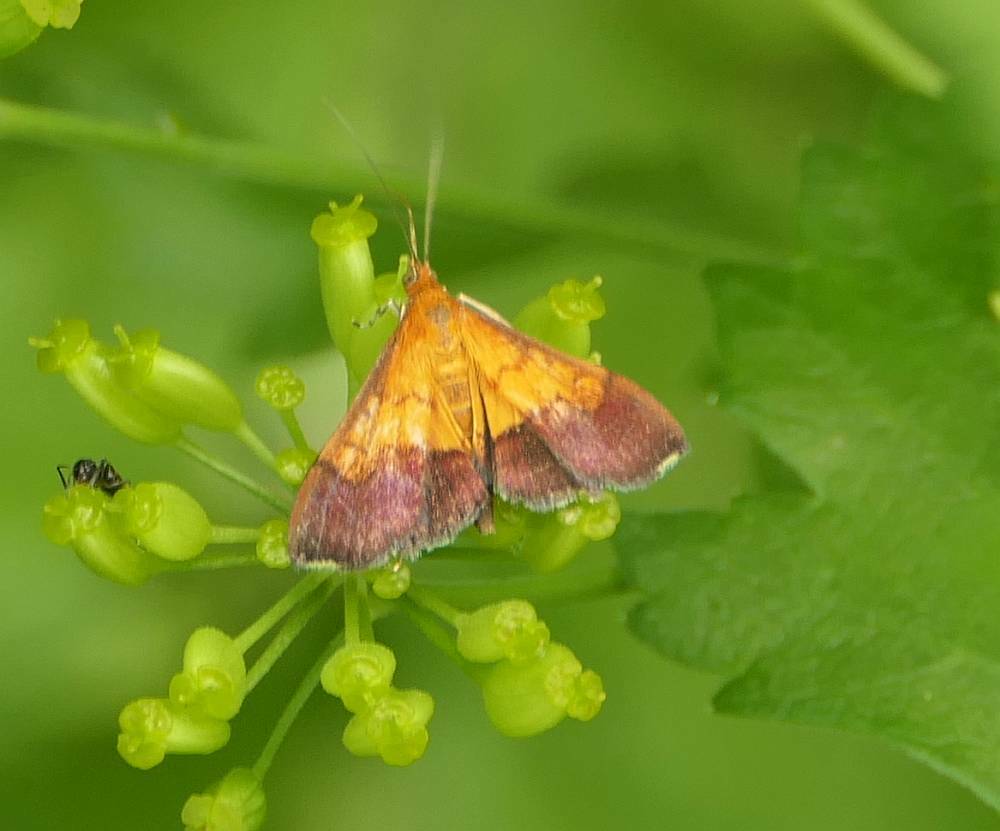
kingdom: Animalia
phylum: Arthropoda
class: Insecta
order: Lepidoptera
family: Crambidae
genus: Pyrausta
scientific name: Pyrausta bicoloralis
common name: Bicolored pyrausta moth
